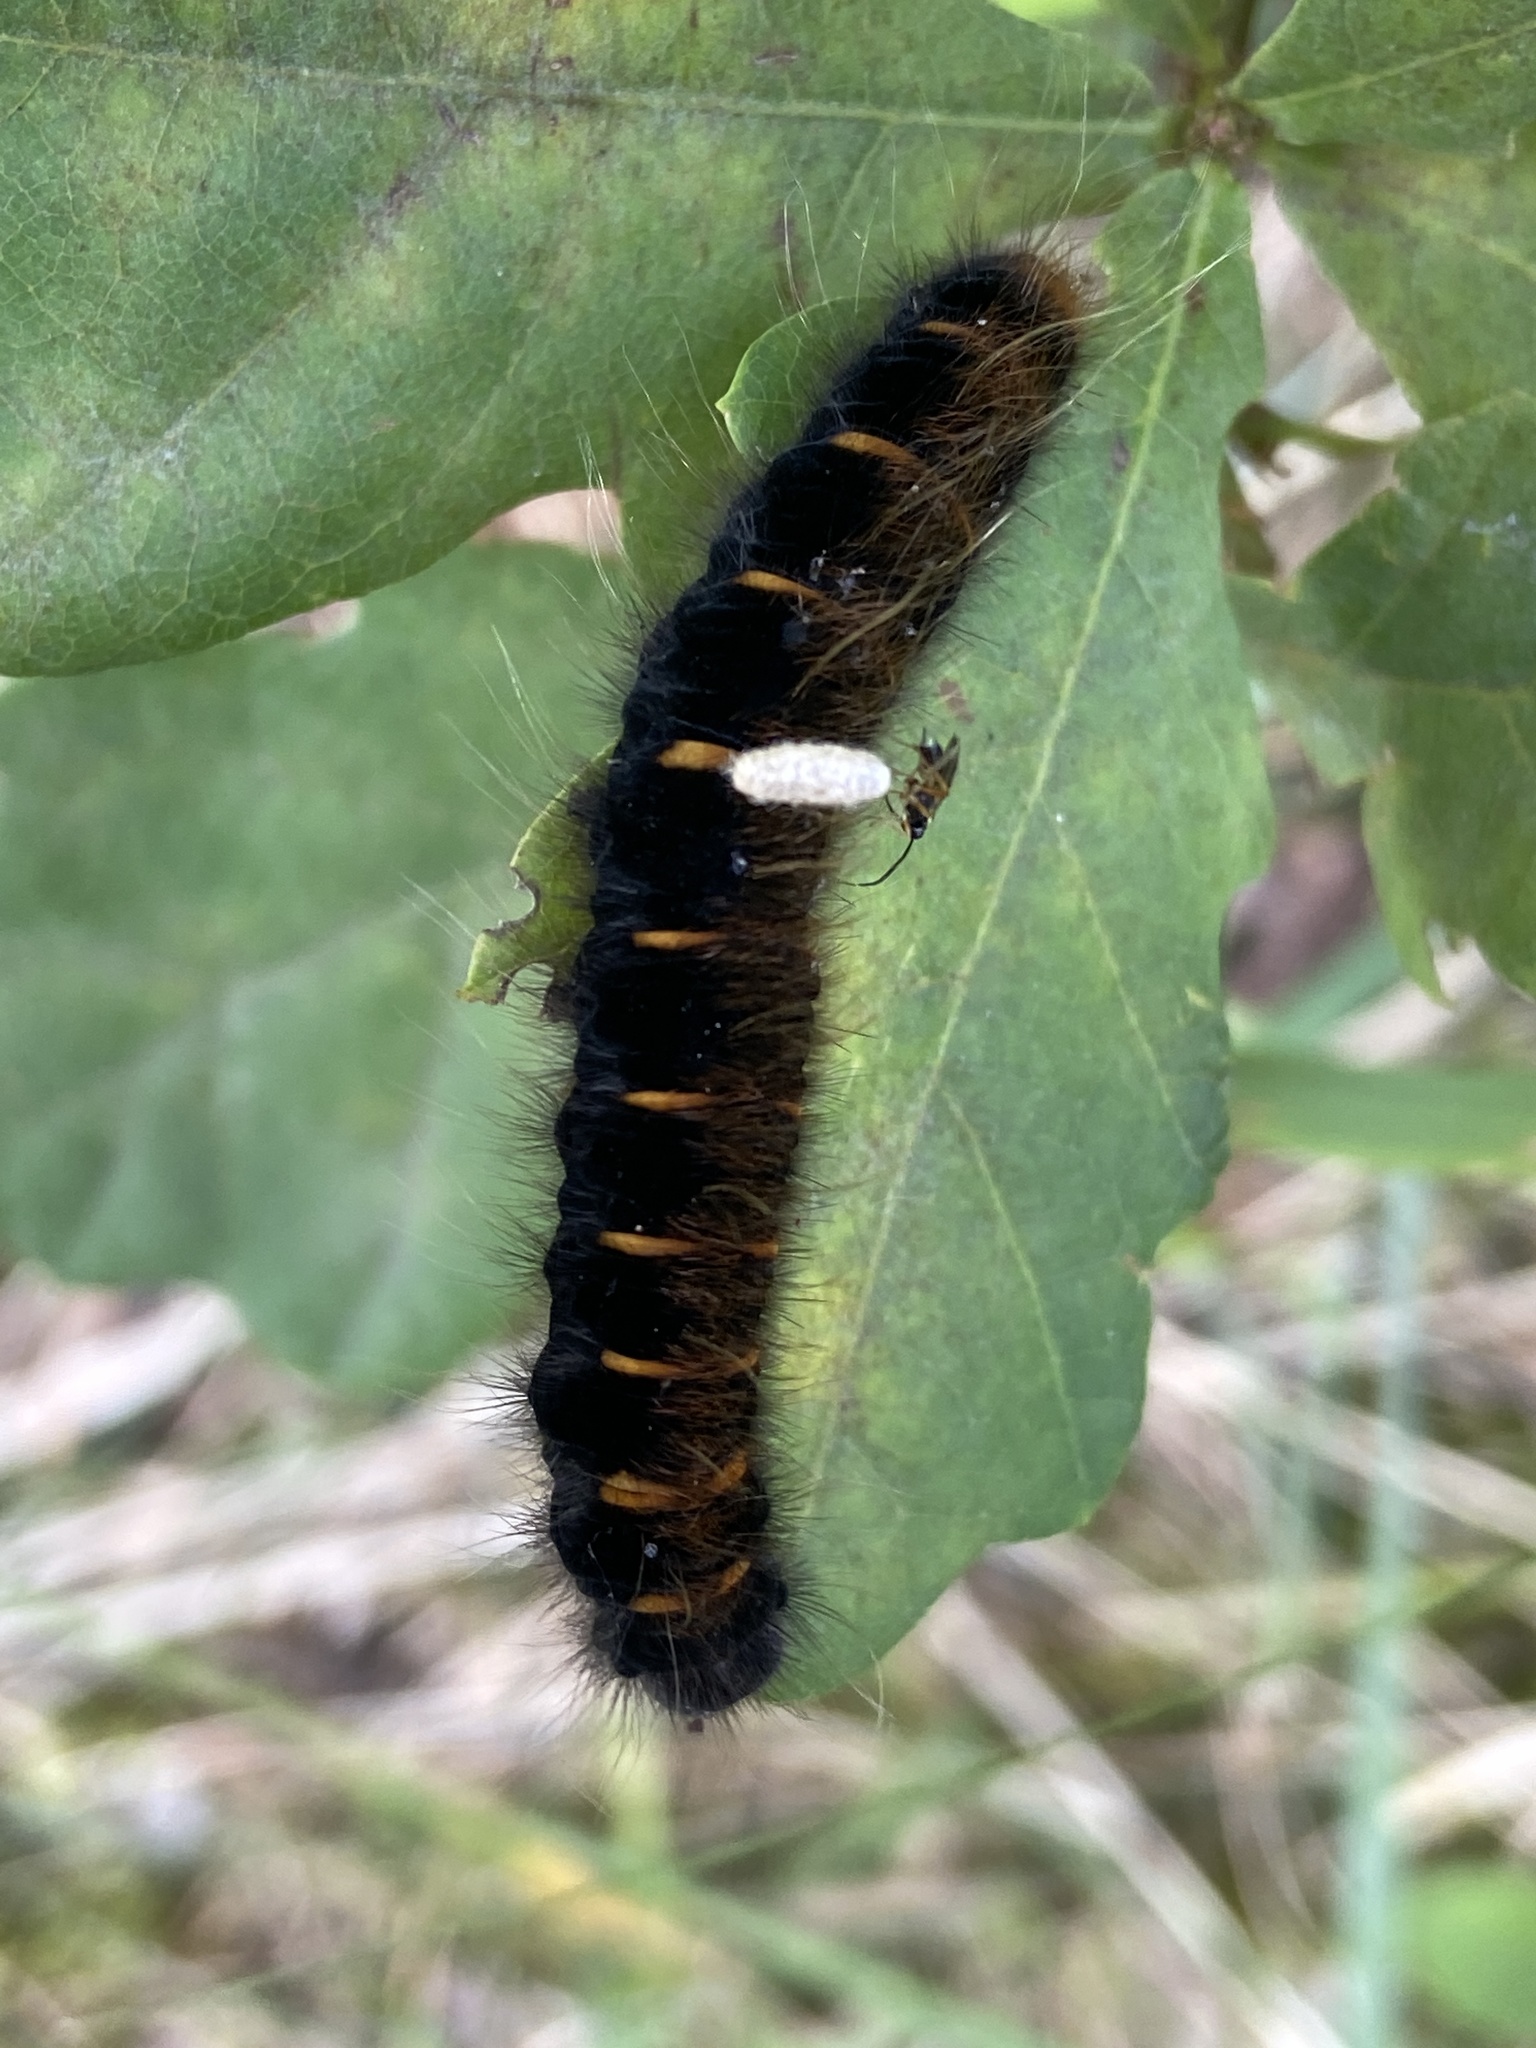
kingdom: Animalia
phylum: Arthropoda
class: Insecta
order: Lepidoptera
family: Lasiocampidae
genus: Macrothylacia
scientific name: Macrothylacia rubi
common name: Fox moth
